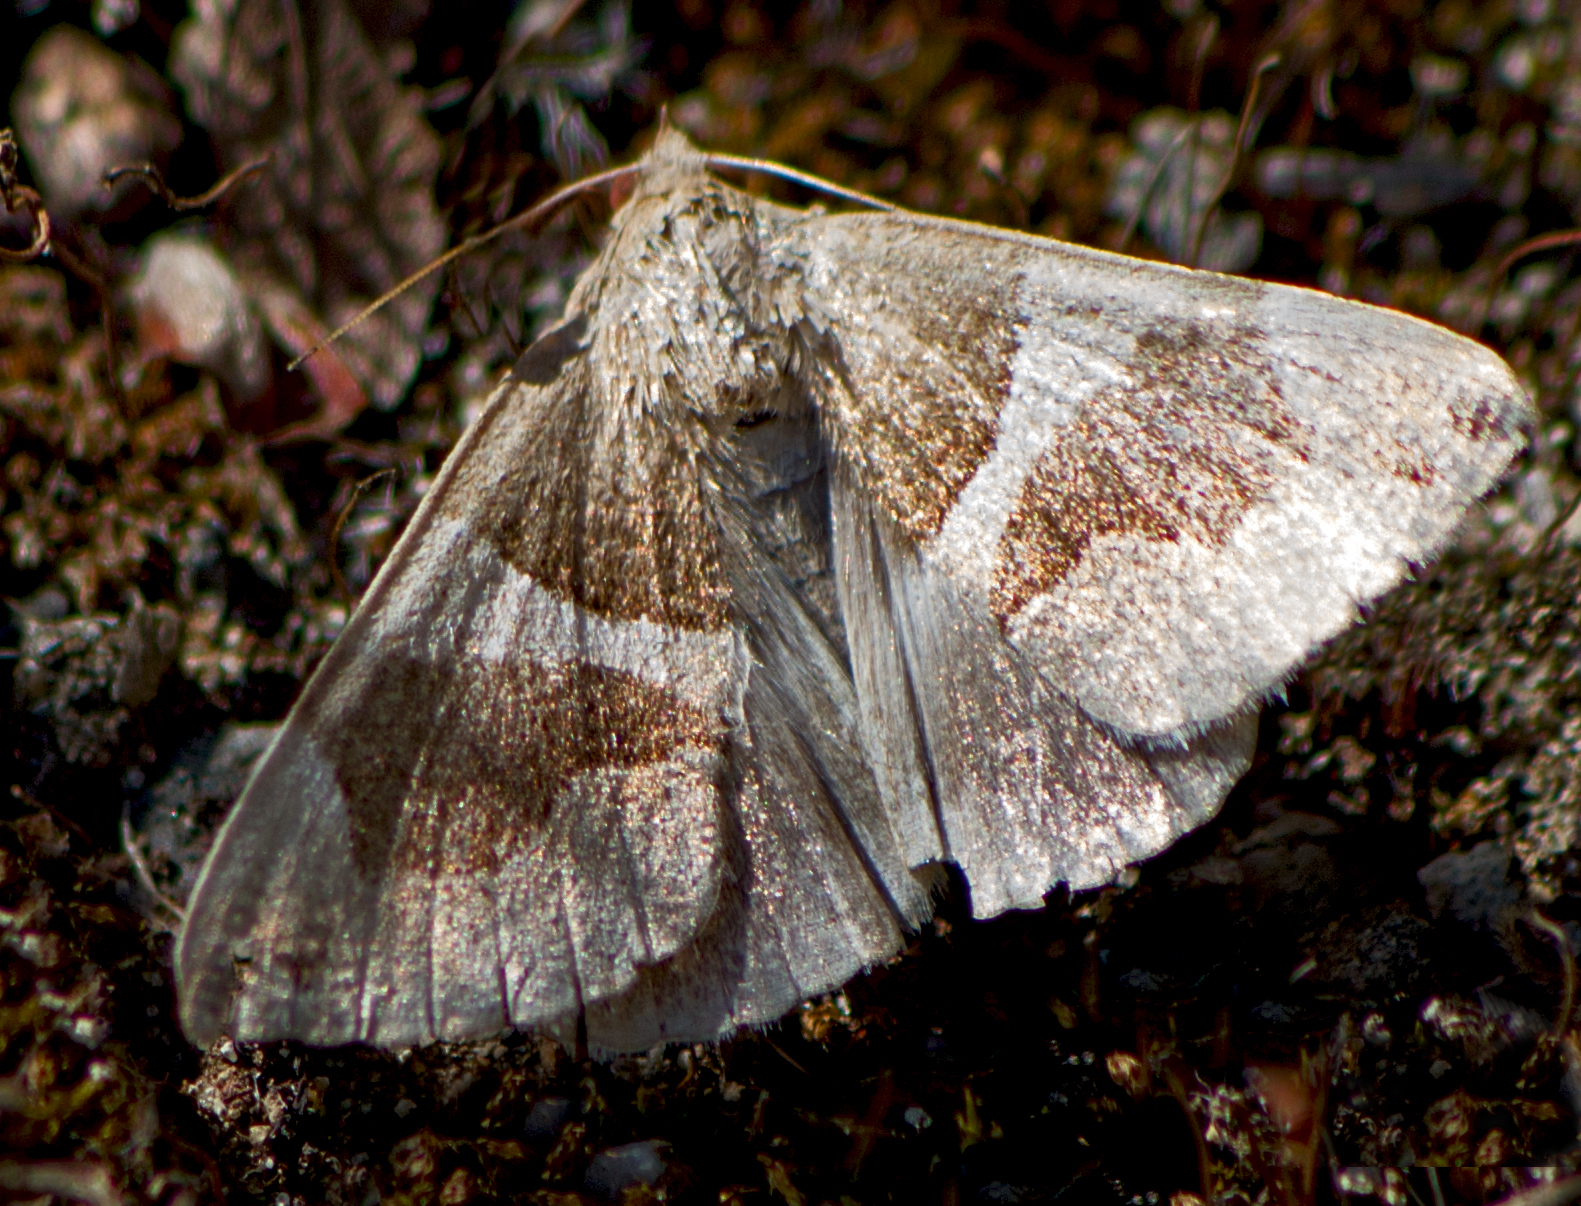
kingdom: Animalia
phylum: Arthropoda
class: Insecta
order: Lepidoptera
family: Erebidae
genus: Dysgonia
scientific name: Dysgonia algira
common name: Passenger
